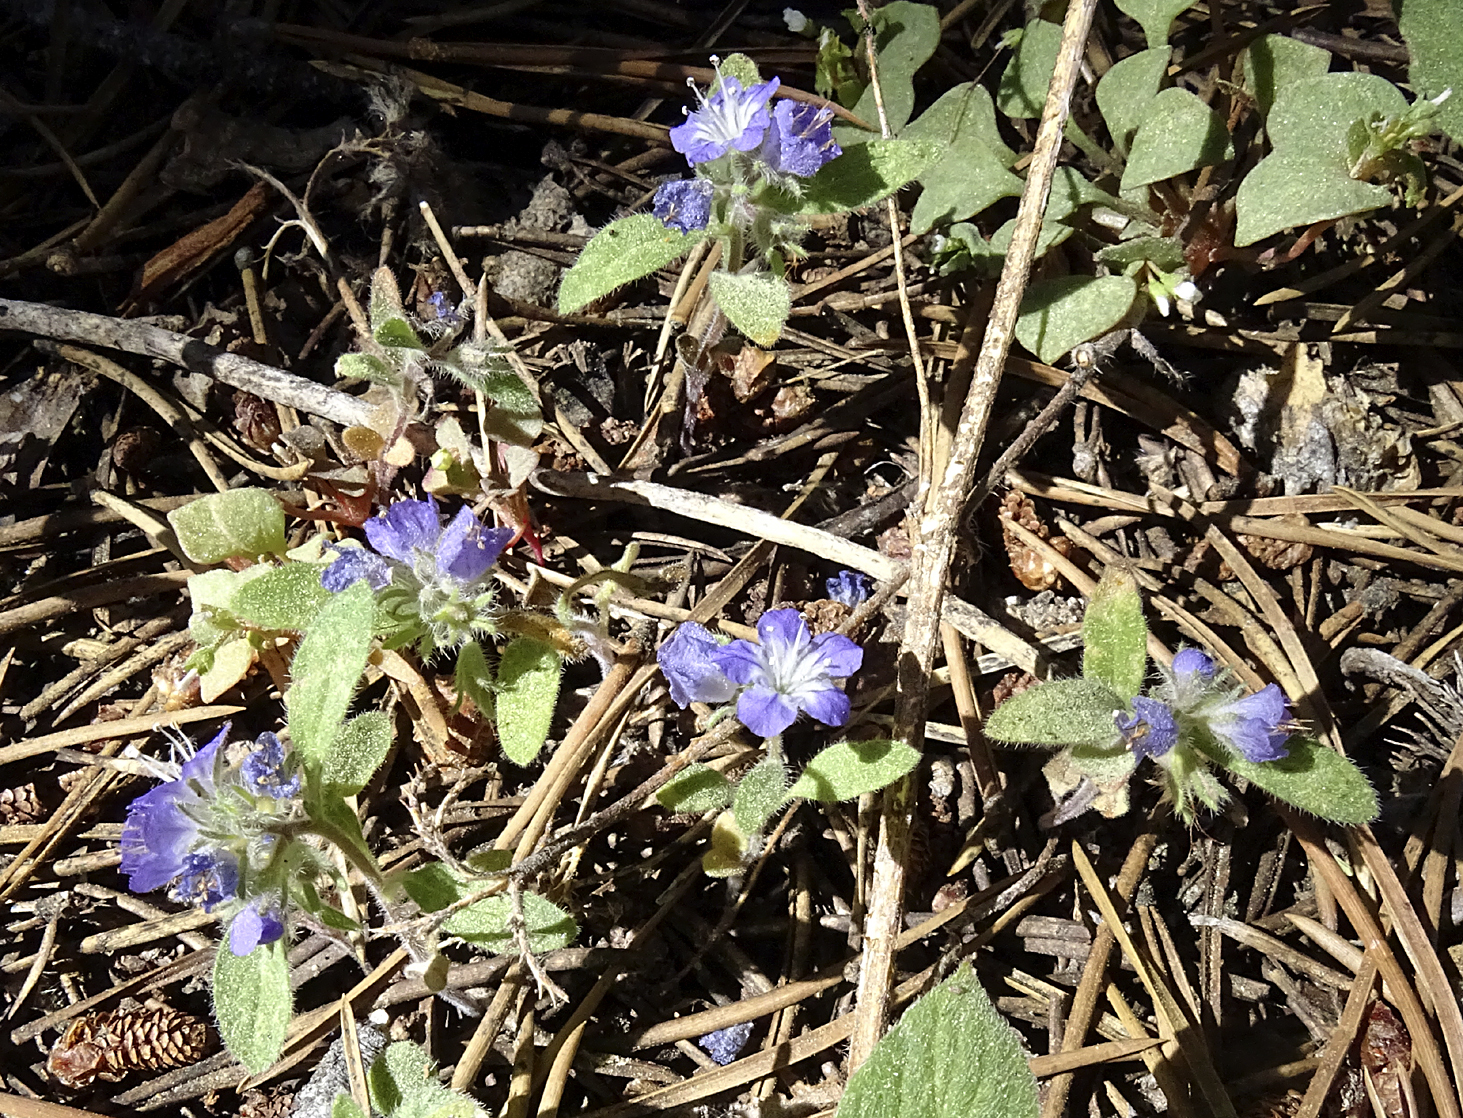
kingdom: Plantae
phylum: Tracheophyta
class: Magnoliopsida
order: Boraginales
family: Hydrophyllaceae
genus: Phacelia
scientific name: Phacelia humilis
